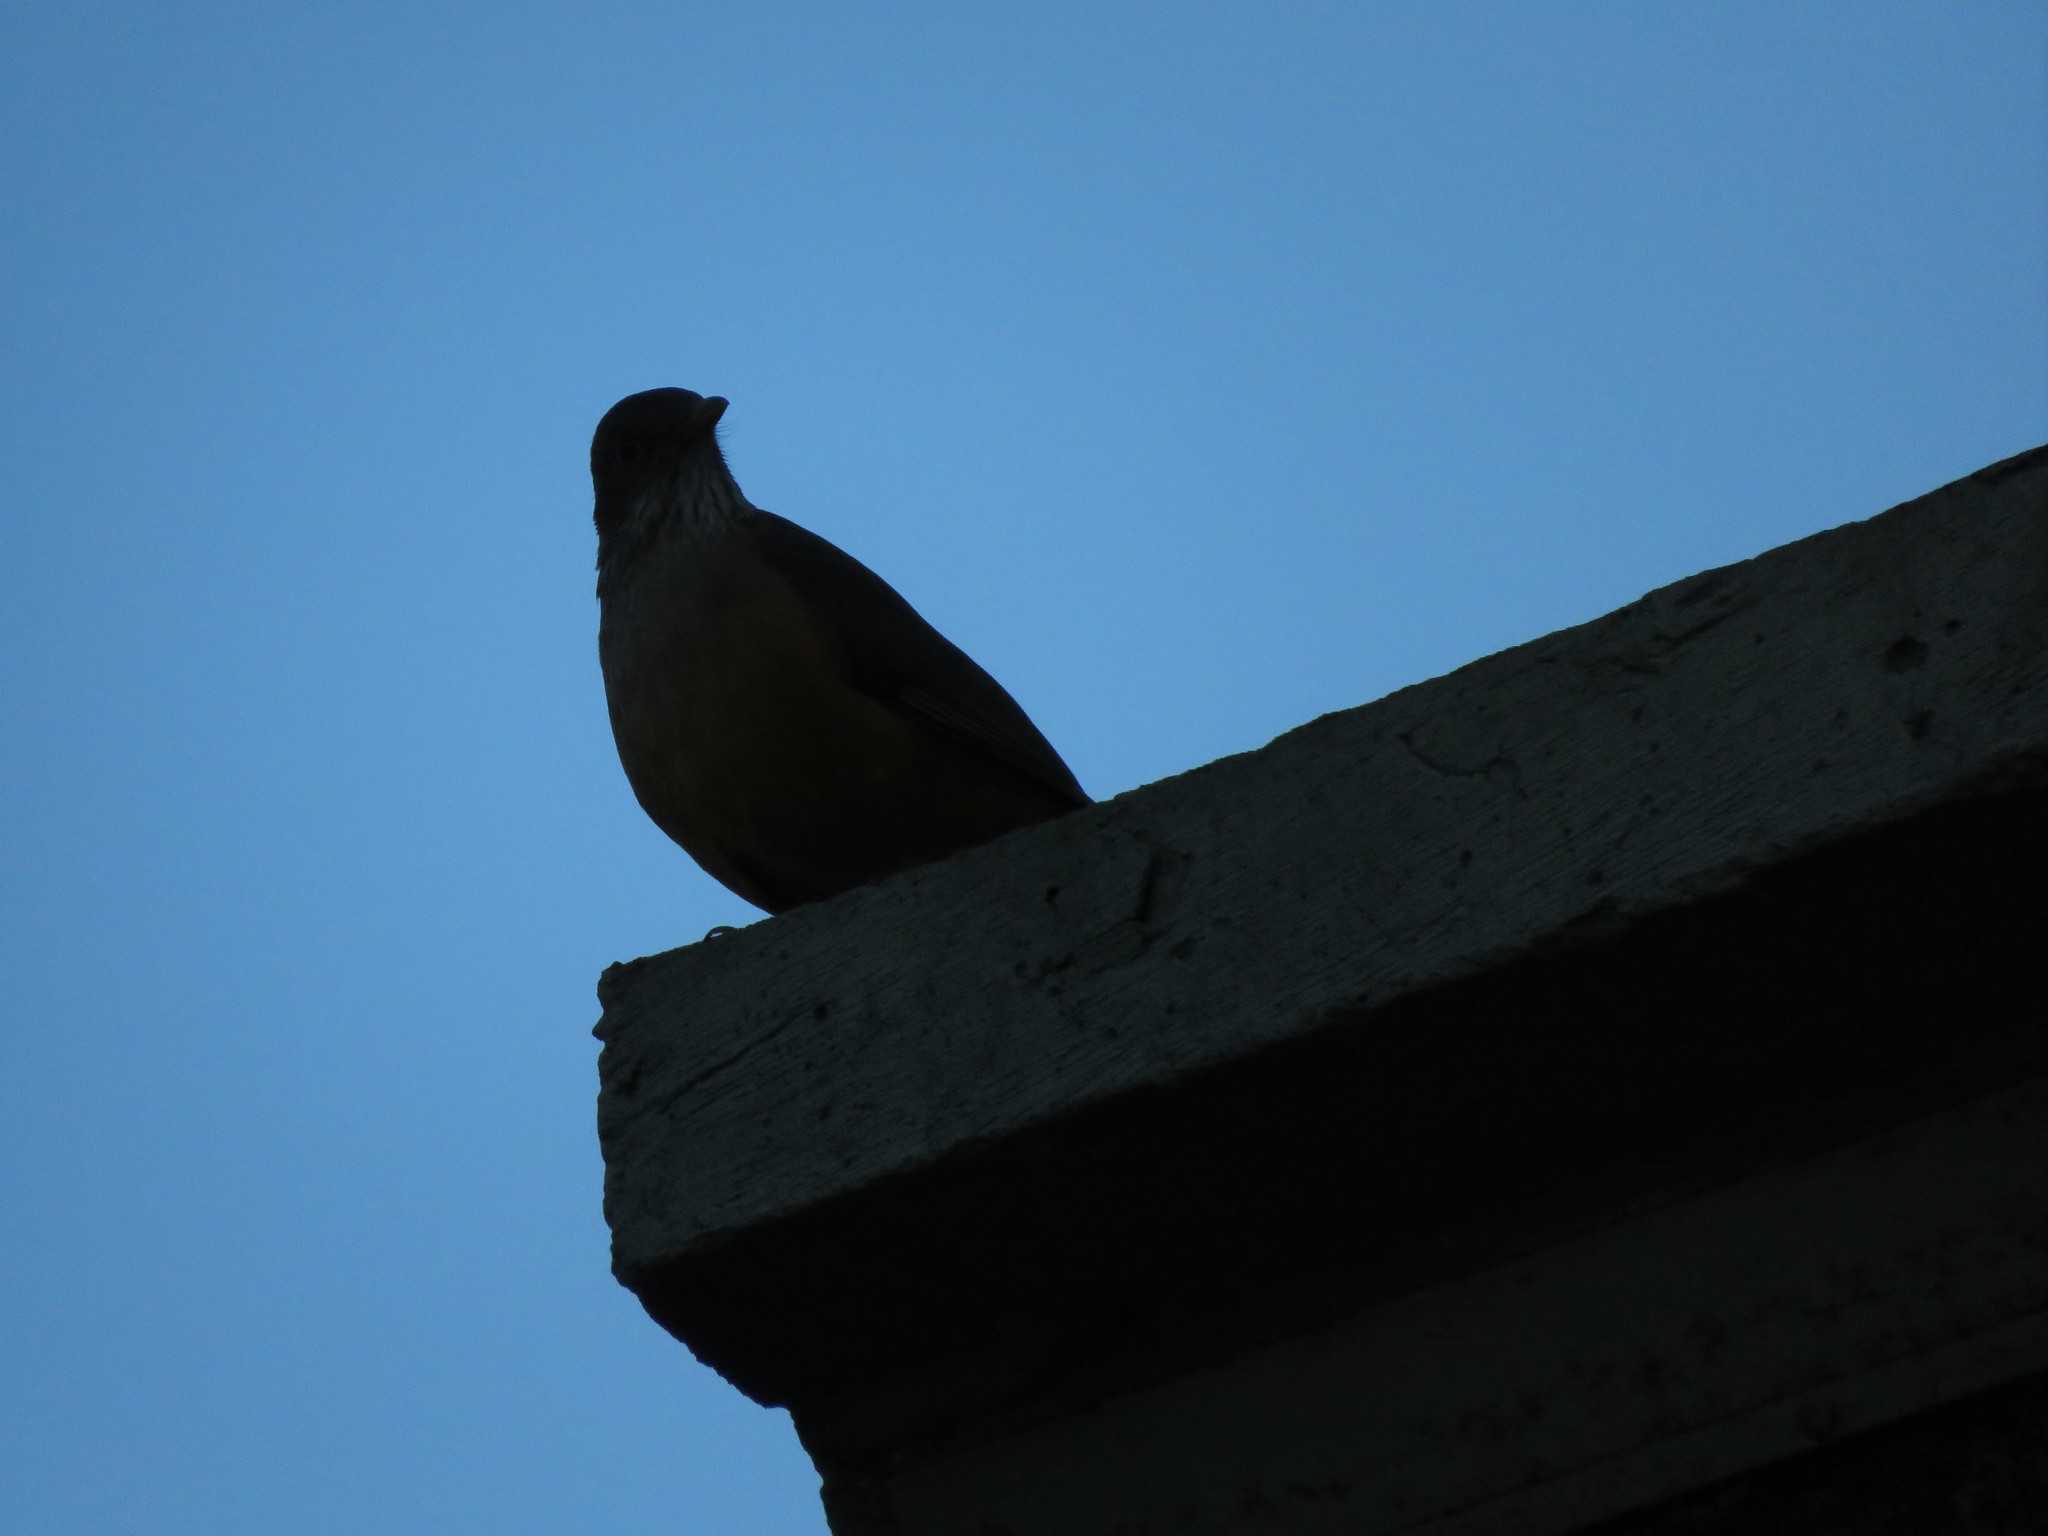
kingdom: Animalia
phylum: Chordata
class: Aves
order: Passeriformes
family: Turdidae
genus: Turdus
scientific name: Turdus rufiventris
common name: Rufous-bellied thrush
